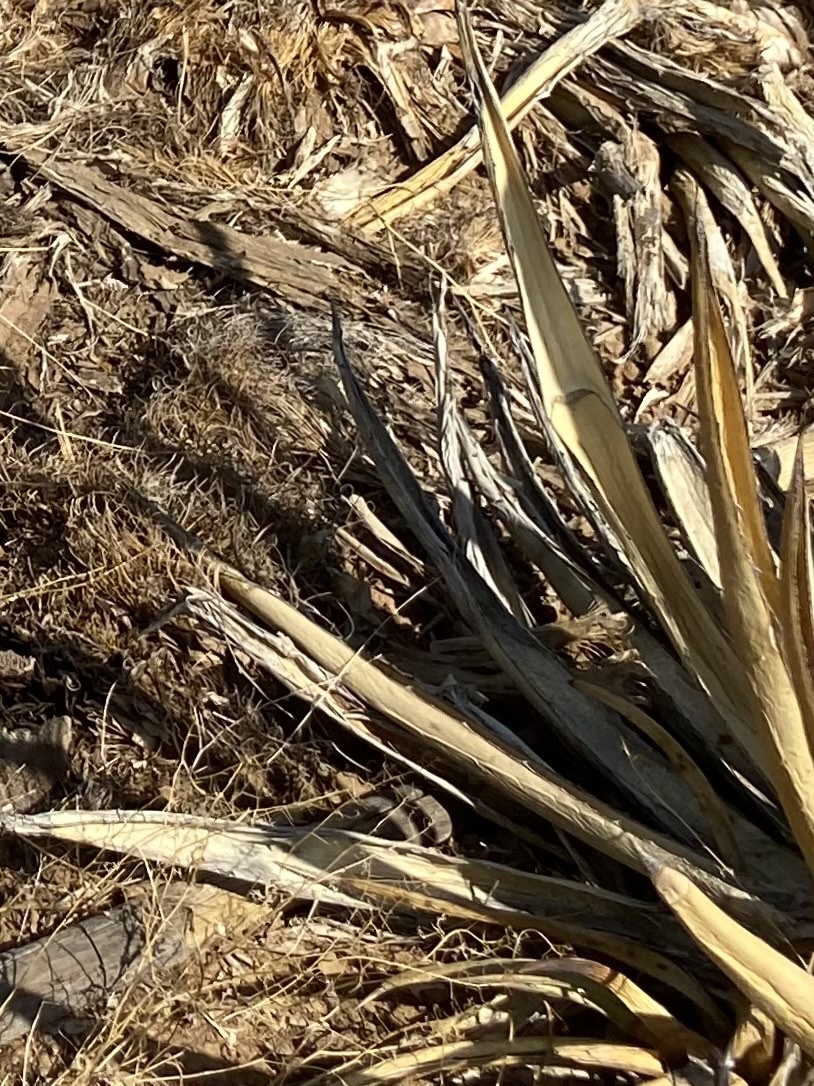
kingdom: Plantae
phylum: Tracheophyta
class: Liliopsida
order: Asparagales
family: Asparagaceae
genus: Agave
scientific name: Agave lechuguilla
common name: Lecheguilla agave
